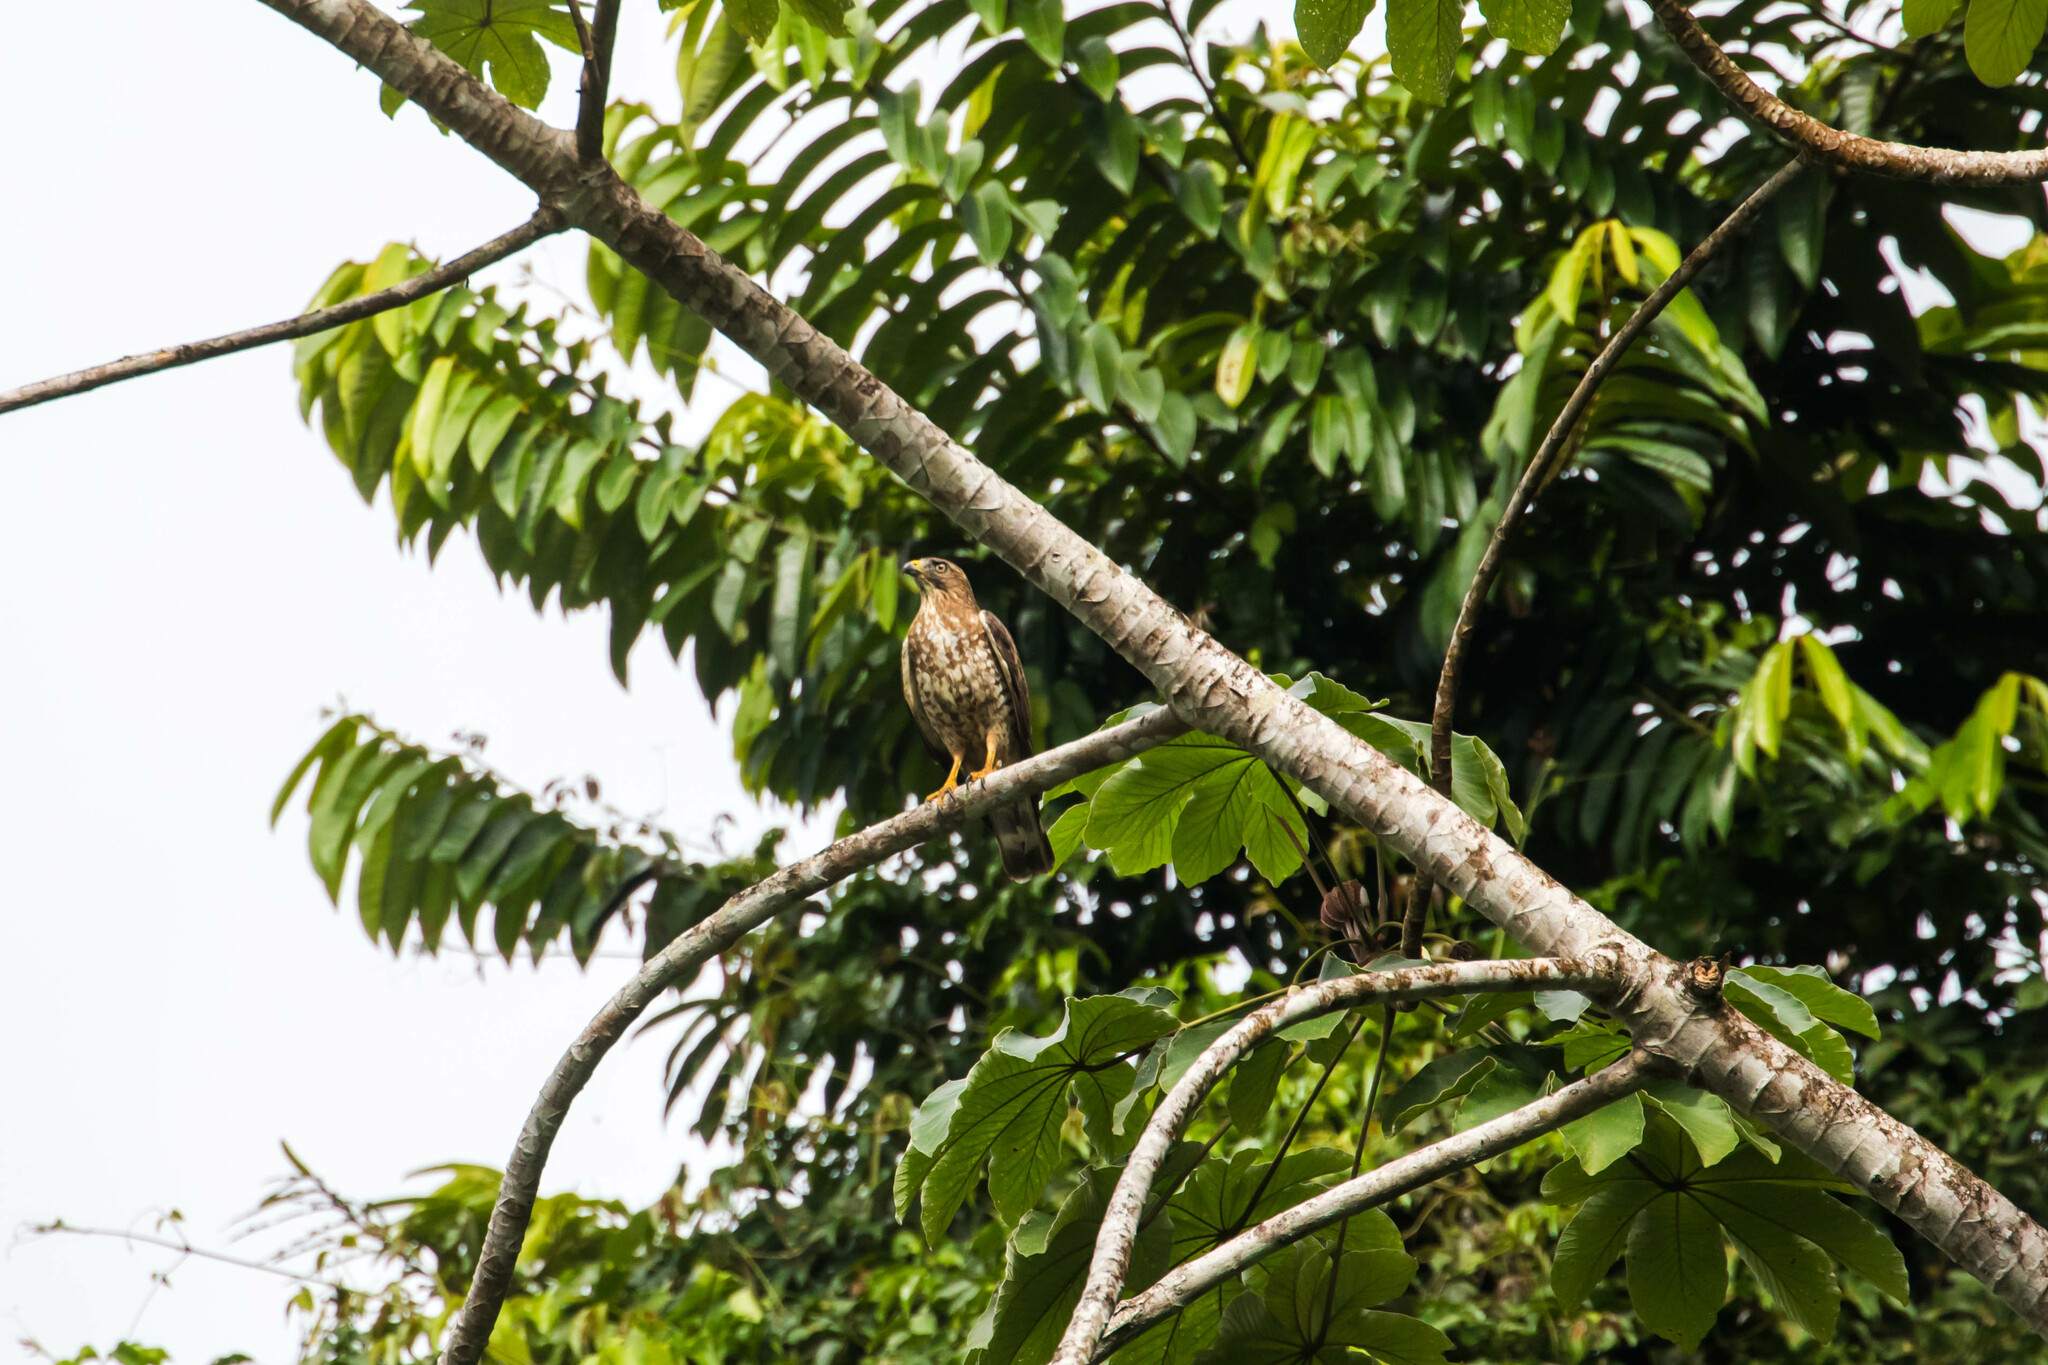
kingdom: Animalia
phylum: Chordata
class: Aves
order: Accipitriformes
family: Accipitridae
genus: Buteo
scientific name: Buteo platypterus
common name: Broad-winged hawk
